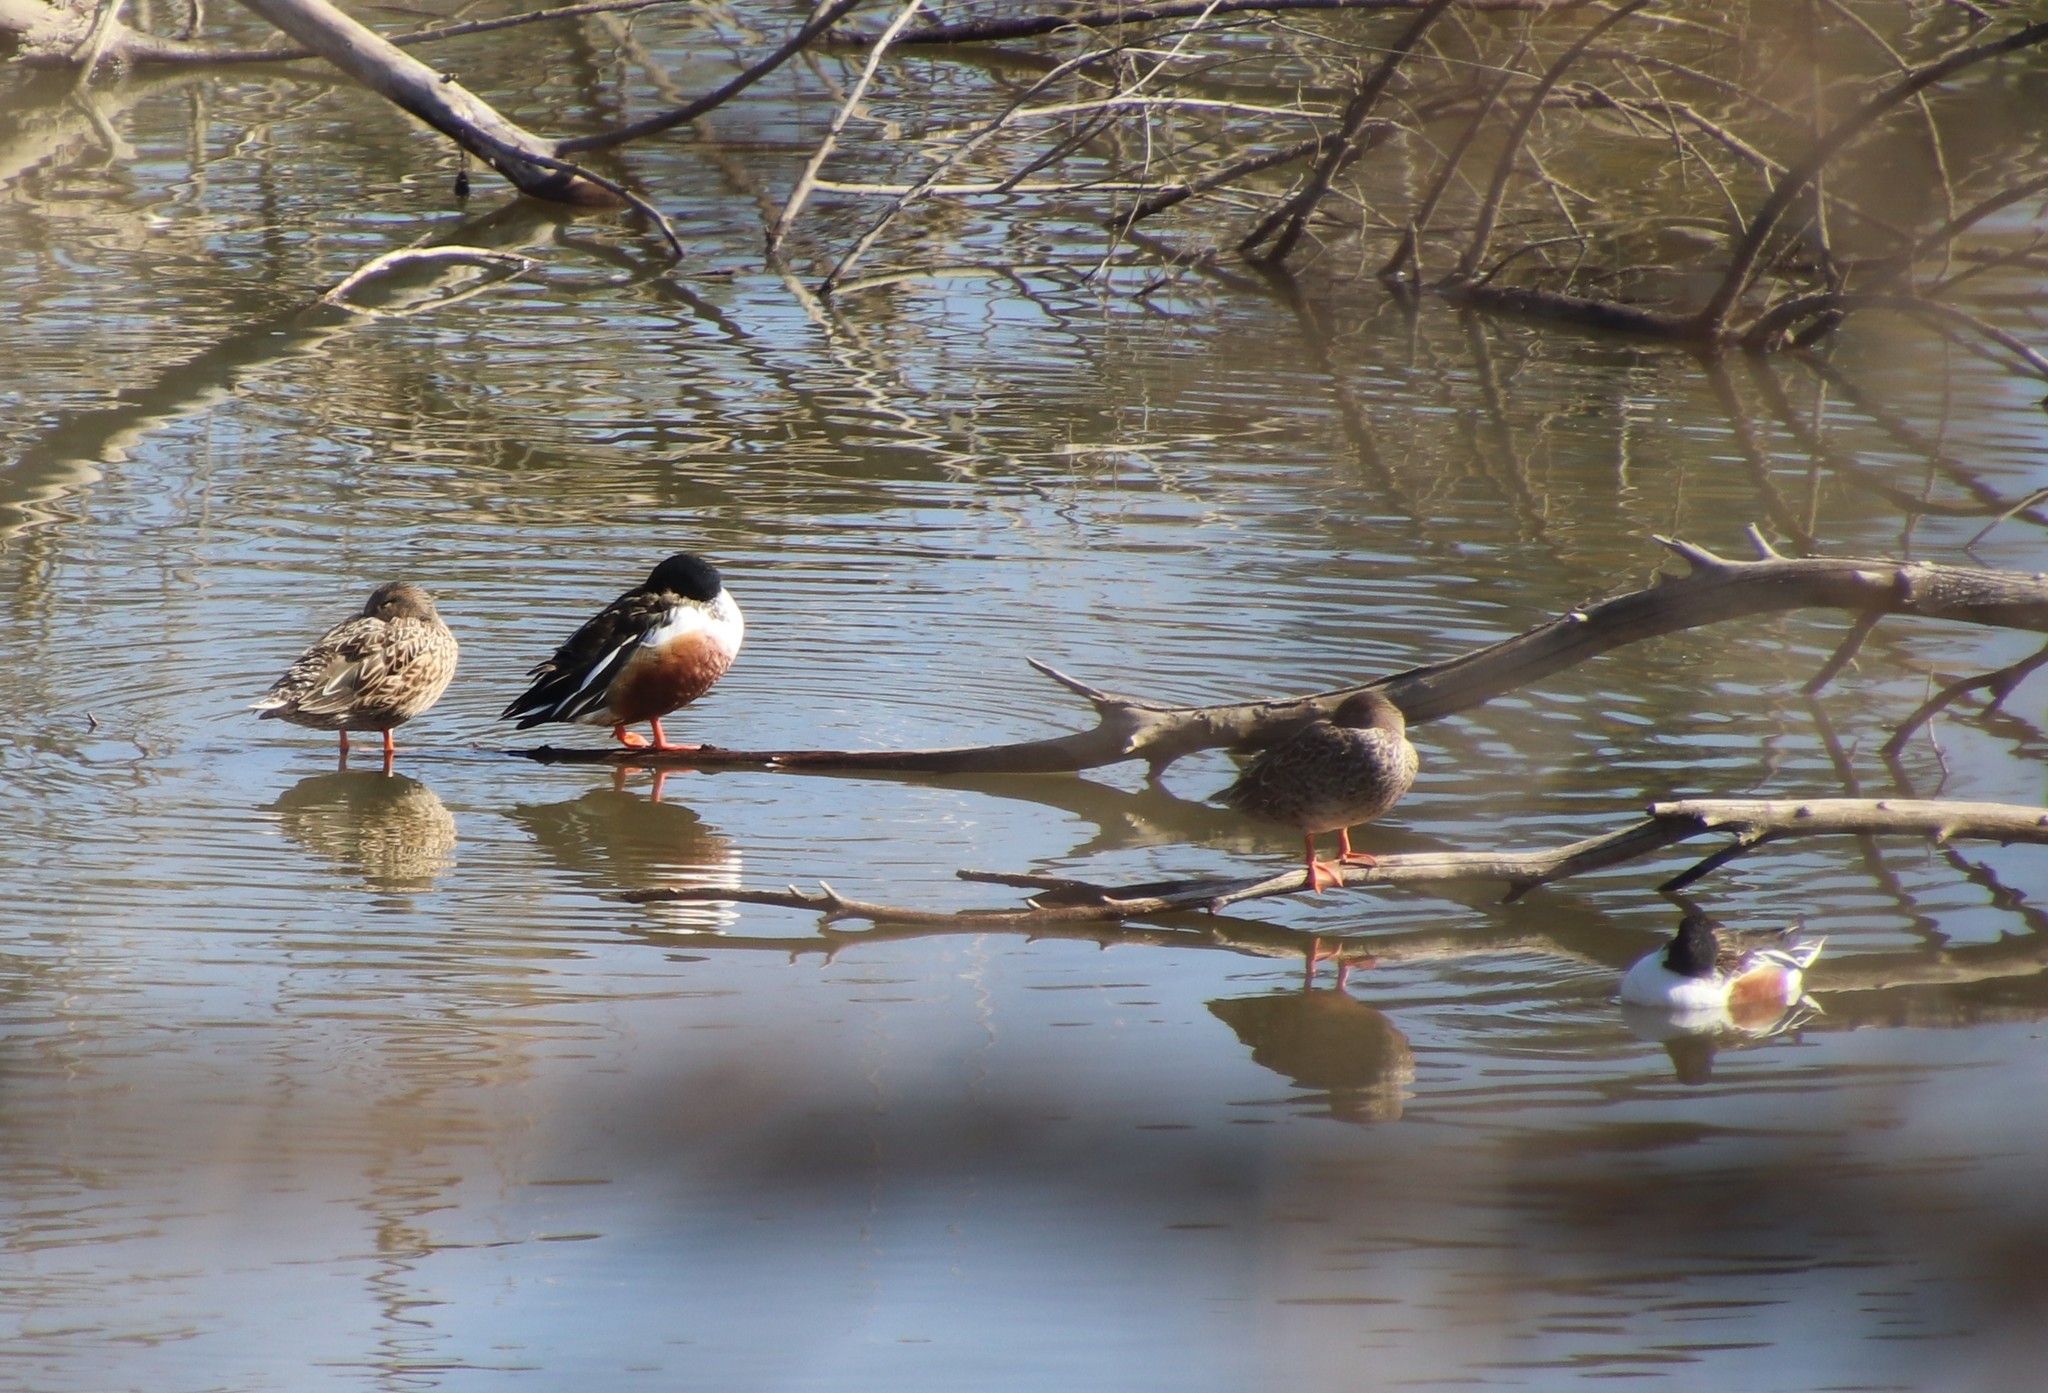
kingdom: Animalia
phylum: Chordata
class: Aves
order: Anseriformes
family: Anatidae
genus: Spatula
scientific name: Spatula clypeata
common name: Northern shoveler
